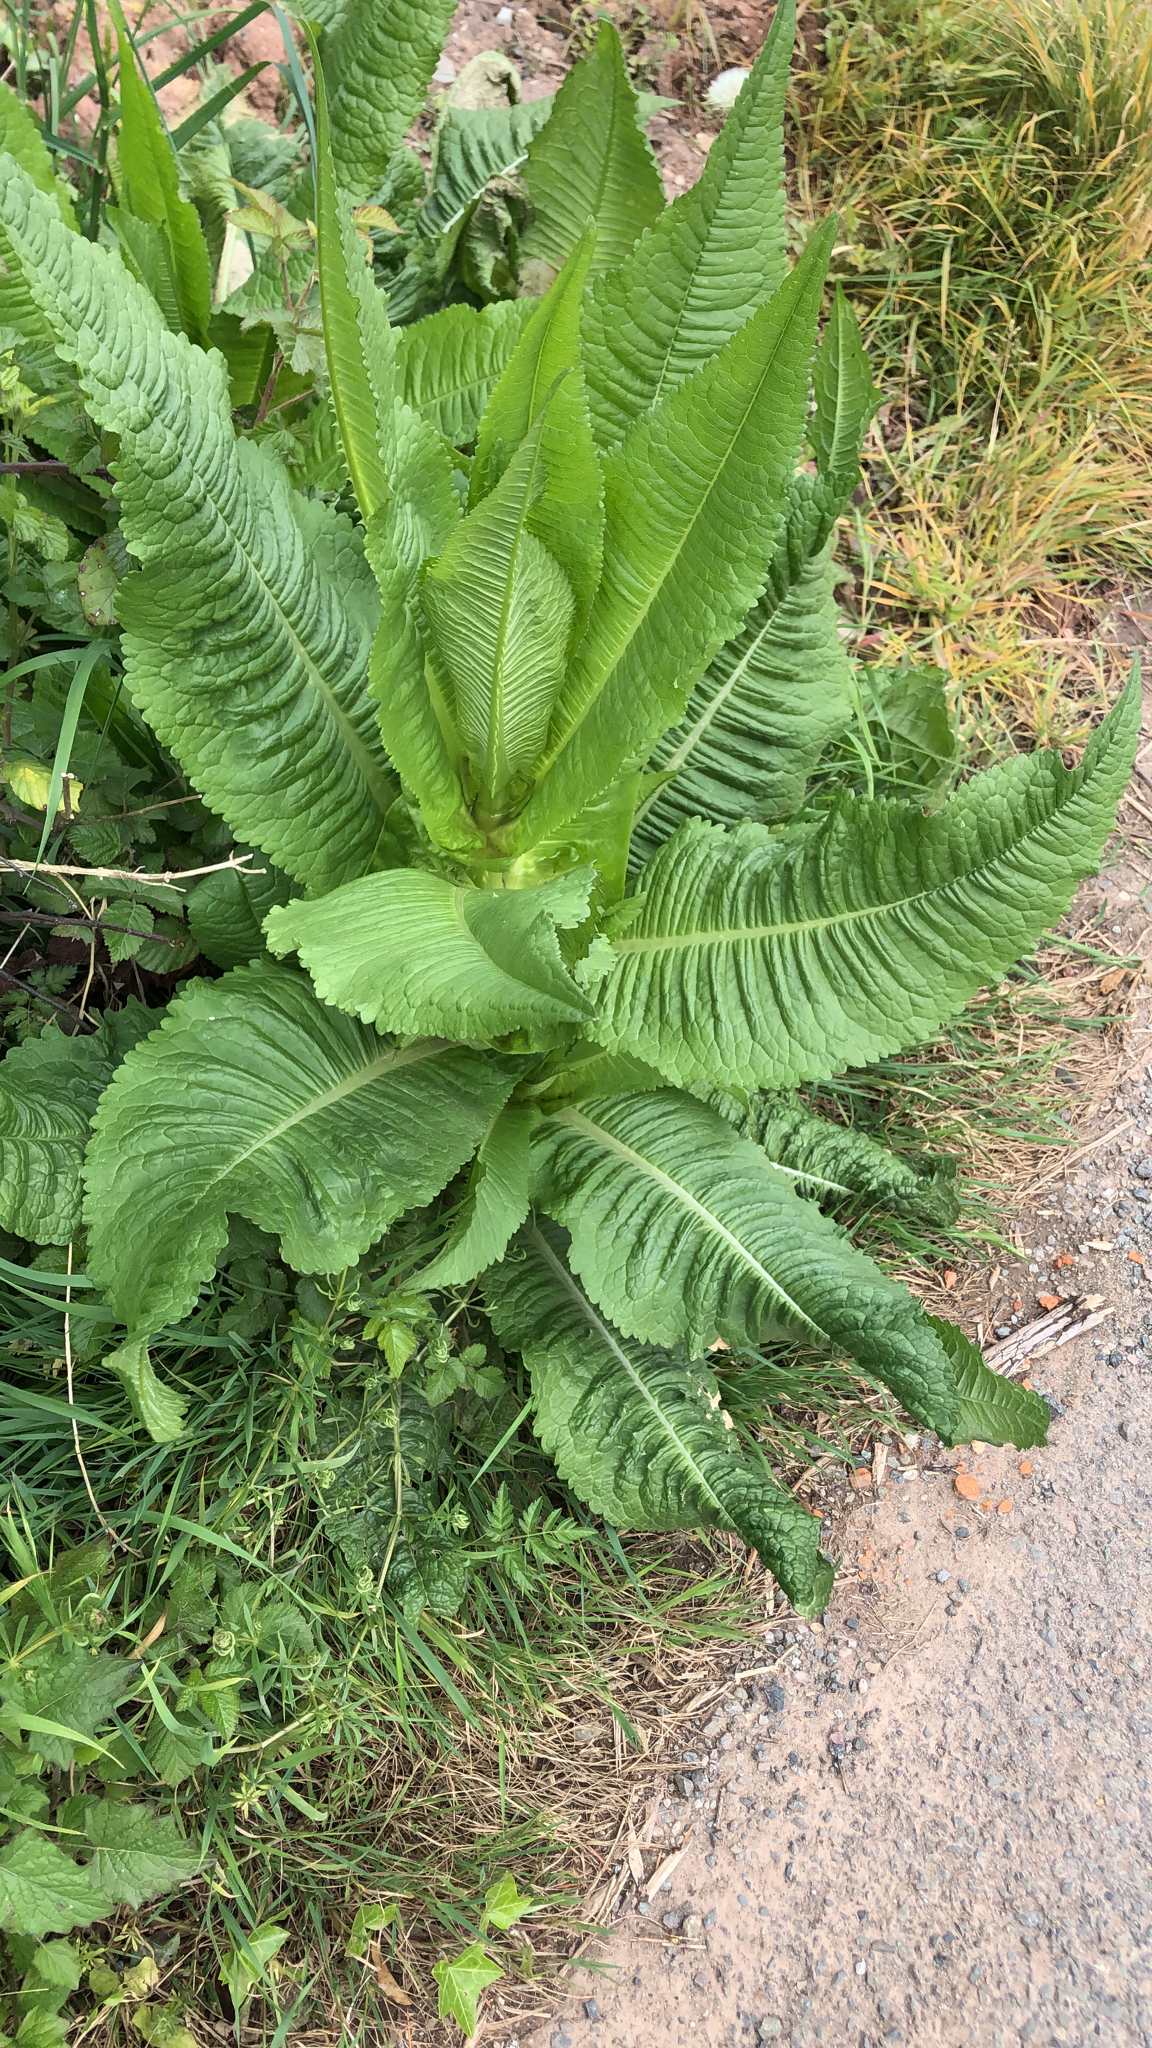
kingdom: Plantae
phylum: Tracheophyta
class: Magnoliopsida
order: Dipsacales
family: Caprifoliaceae
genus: Dipsacus
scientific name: Dipsacus fullonum
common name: Teasel
